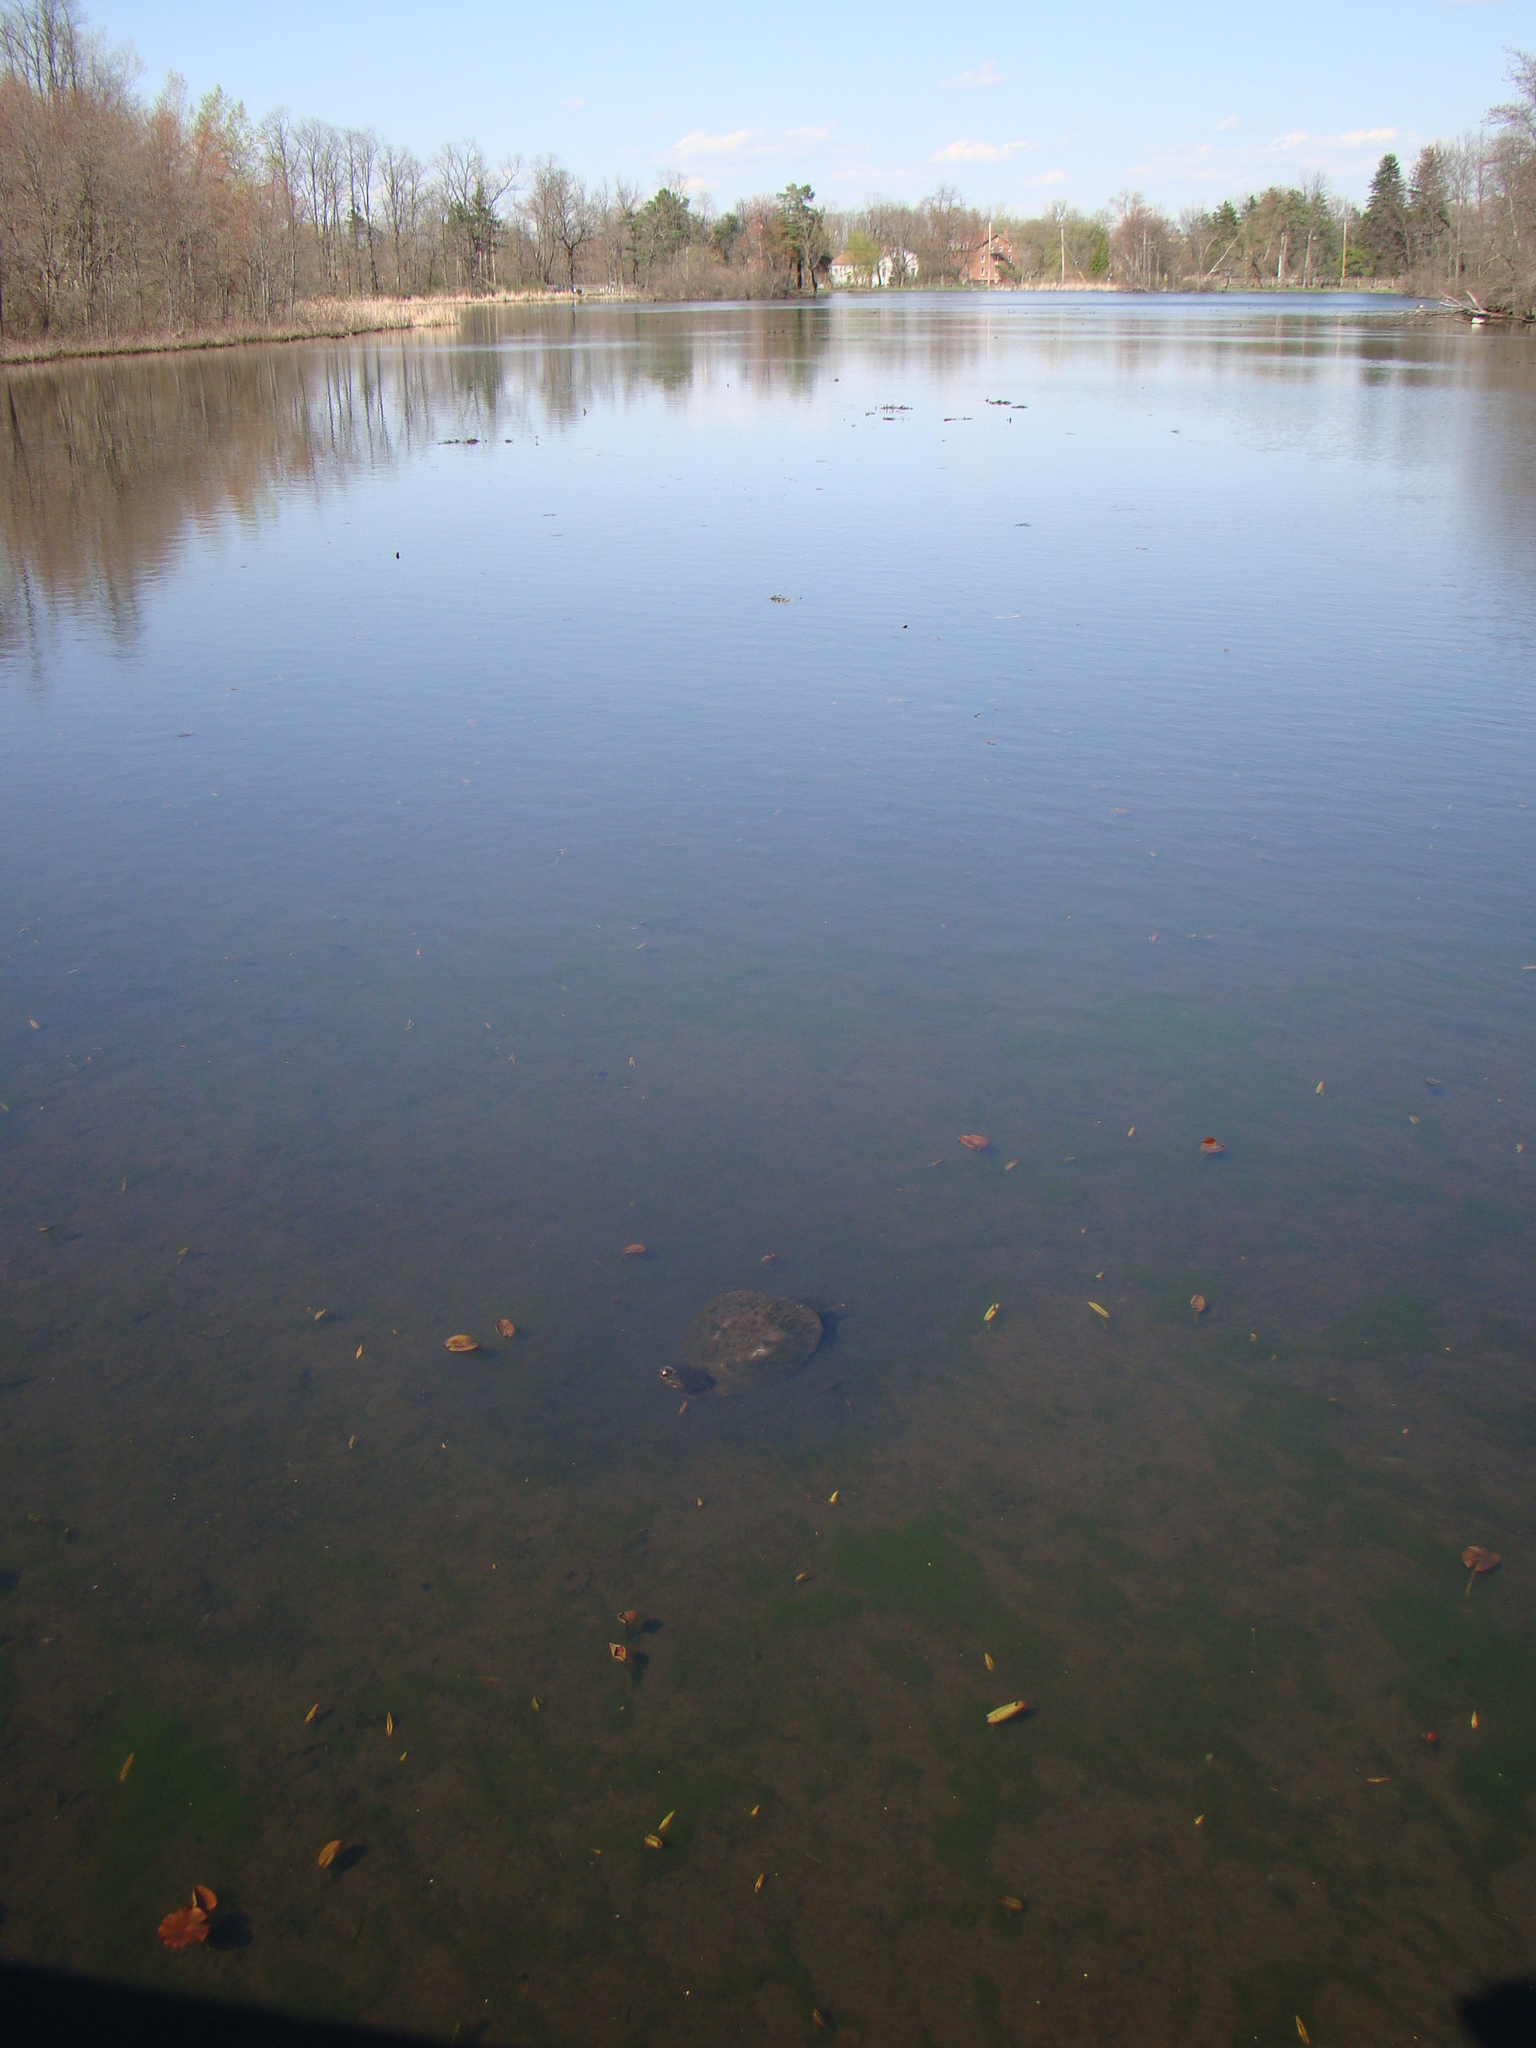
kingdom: Animalia
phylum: Chordata
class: Testudines
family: Chelydridae
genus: Chelydra
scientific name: Chelydra serpentina
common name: Common snapping turtle
